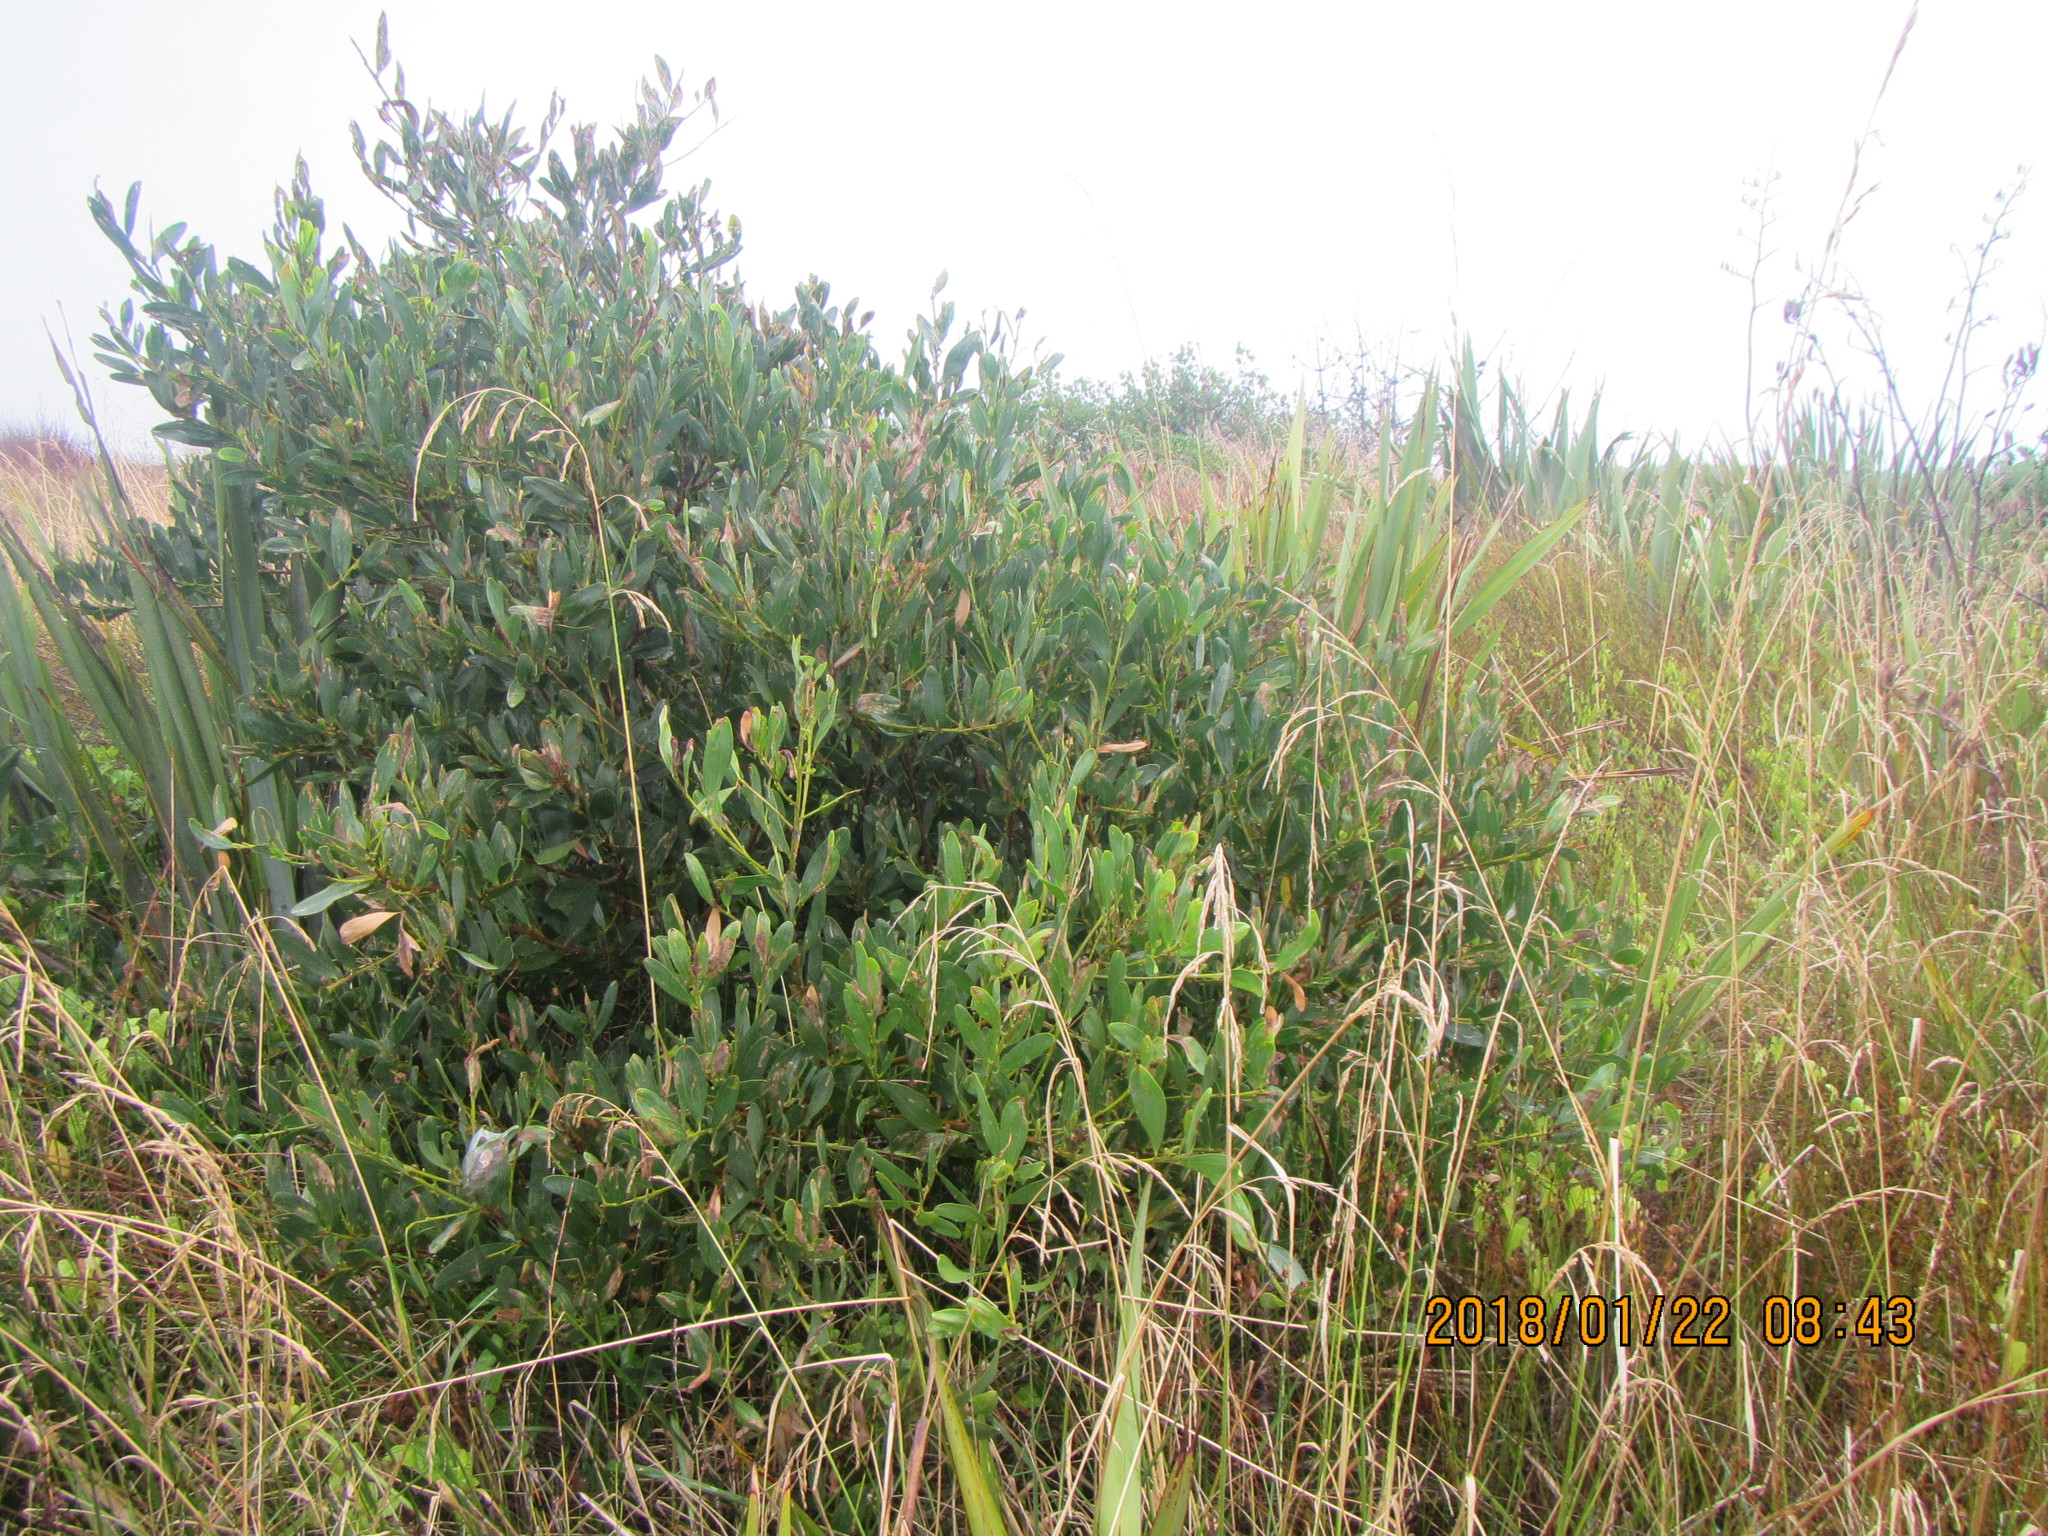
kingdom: Plantae
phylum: Tracheophyta
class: Magnoliopsida
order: Fabales
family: Fabaceae
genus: Acacia
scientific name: Acacia longifolia
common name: Sydney golden wattle
